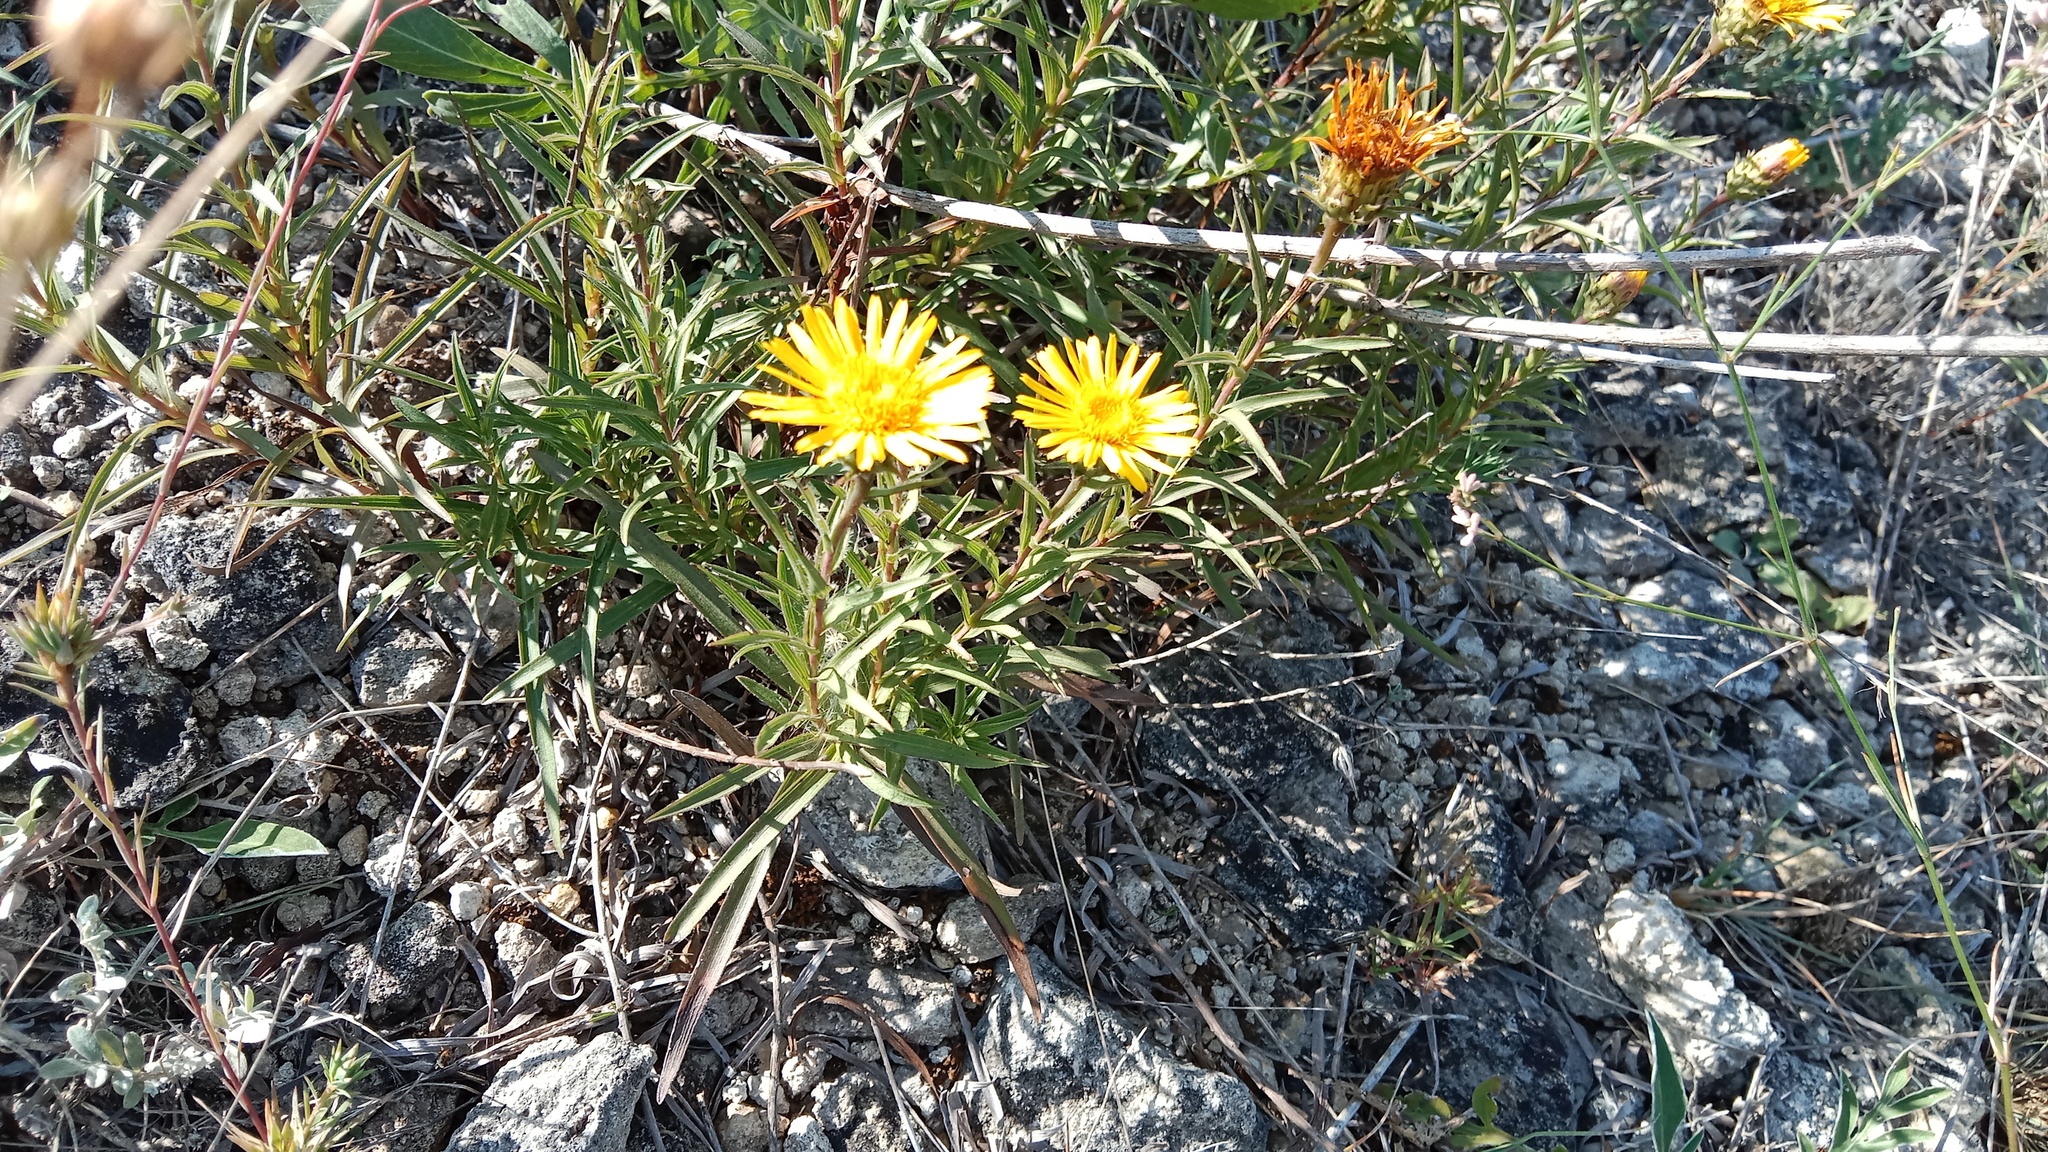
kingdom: Plantae
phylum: Tracheophyta
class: Magnoliopsida
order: Asterales
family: Asteraceae
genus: Pentanema
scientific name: Pentanema ensifolium
